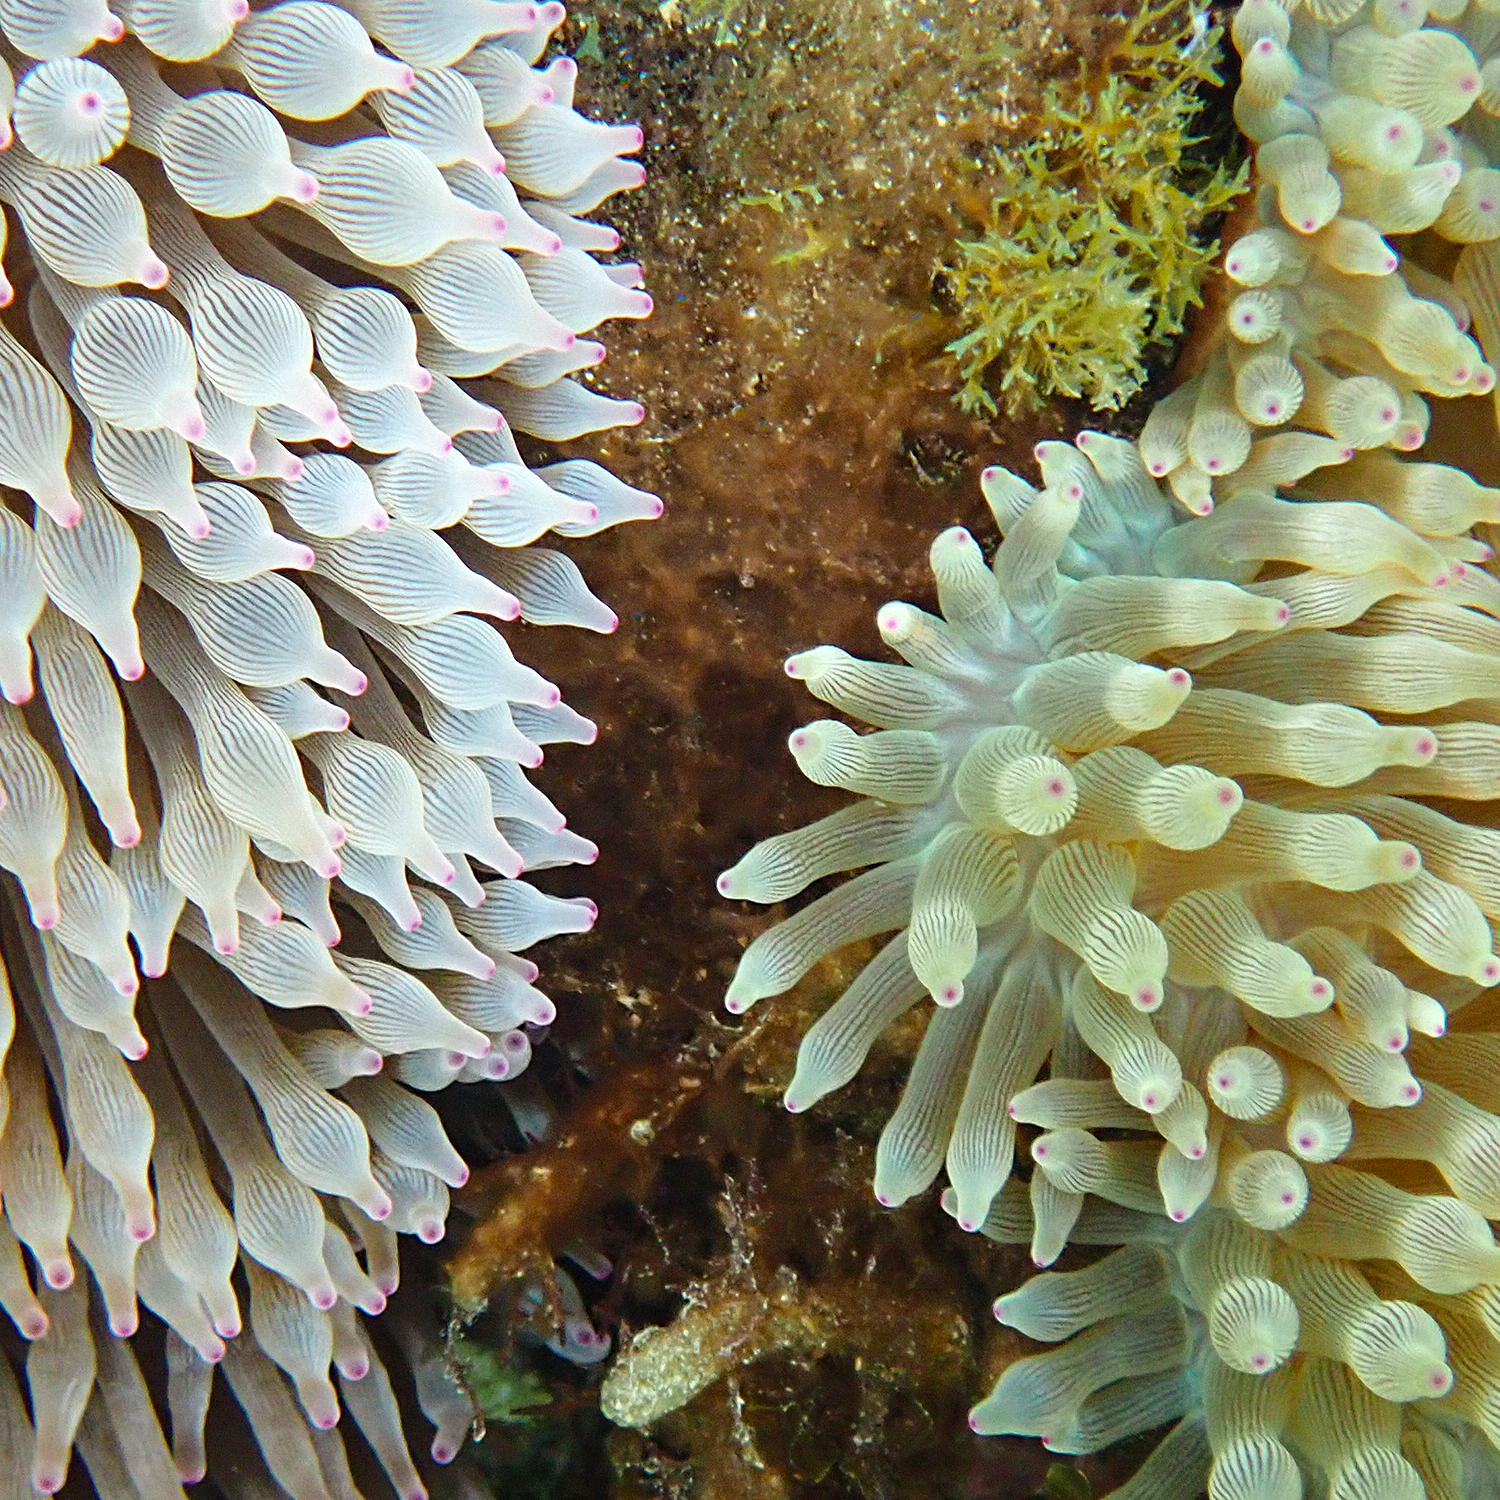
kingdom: Animalia
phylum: Cnidaria
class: Anthozoa
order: Actiniaria
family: Actiniidae
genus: Entacmaea
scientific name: Entacmaea quadricolor
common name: Bulb tentacle sea anemone
